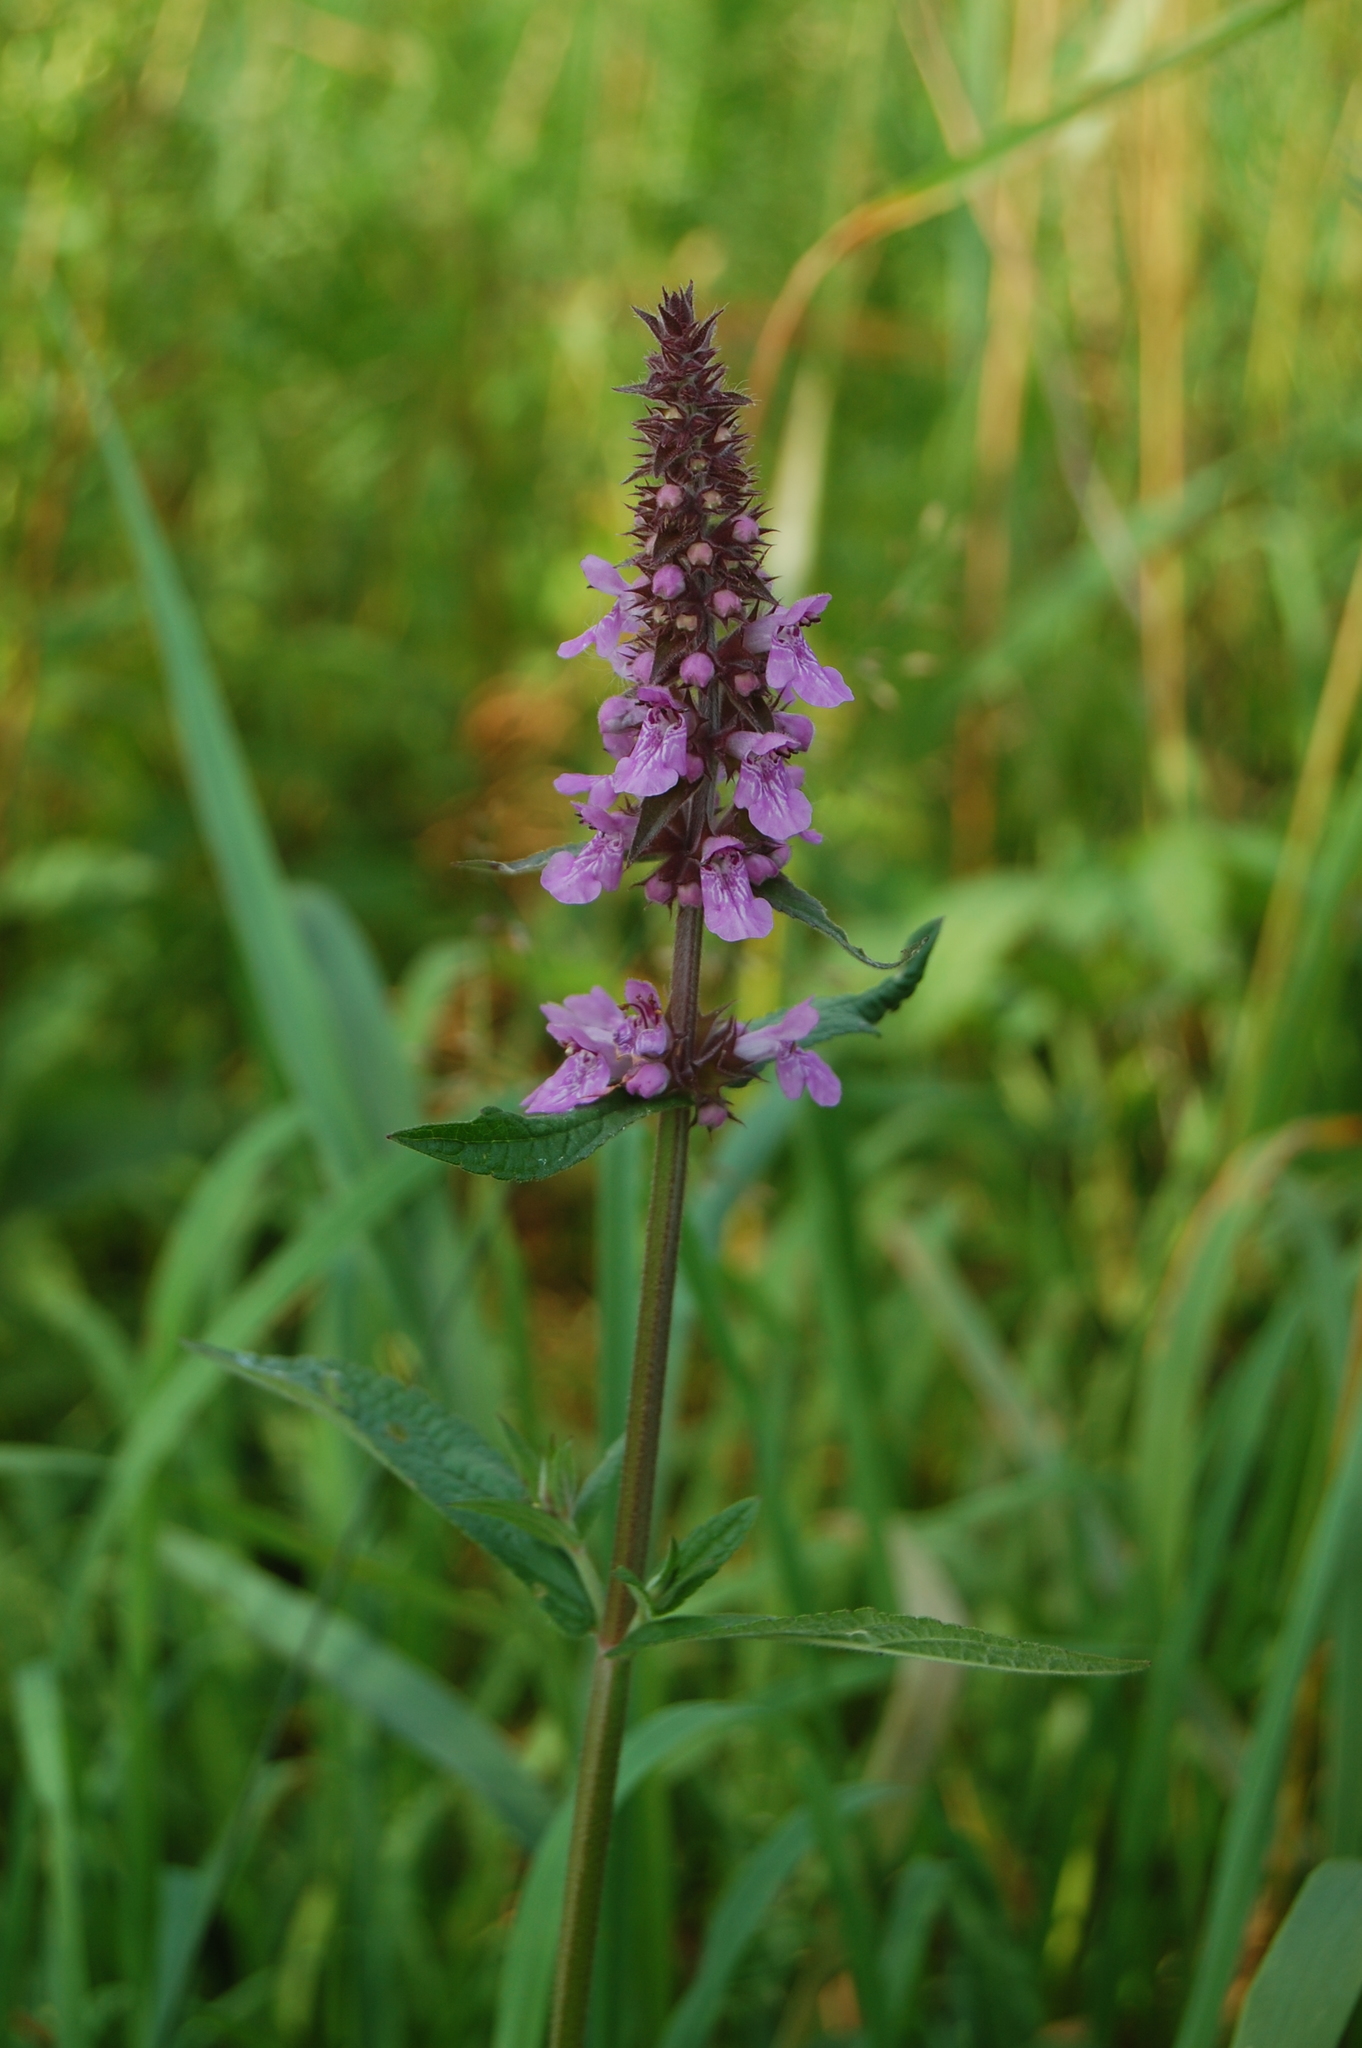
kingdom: Plantae
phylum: Tracheophyta
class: Magnoliopsida
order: Lamiales
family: Lamiaceae
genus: Stachys
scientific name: Stachys palustris
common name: Marsh woundwort
